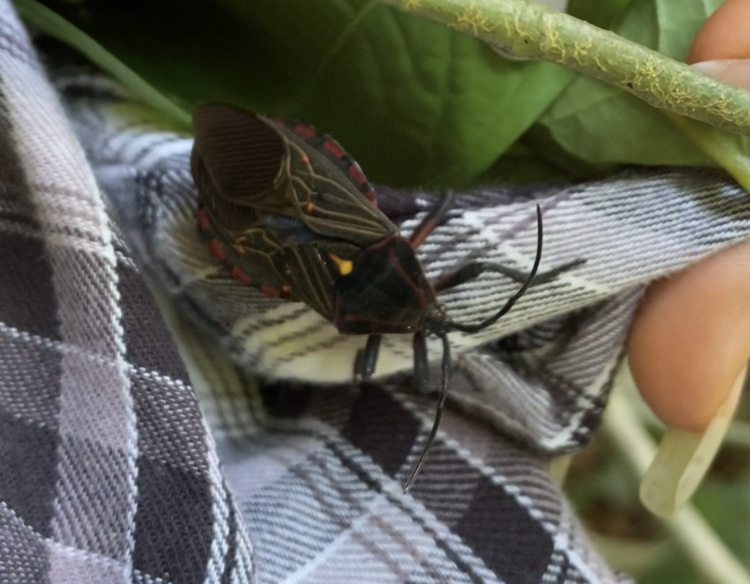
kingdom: Animalia
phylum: Arthropoda
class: Insecta
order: Hemiptera
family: Coreidae
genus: Pachylis
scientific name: Pachylis pharaonis
